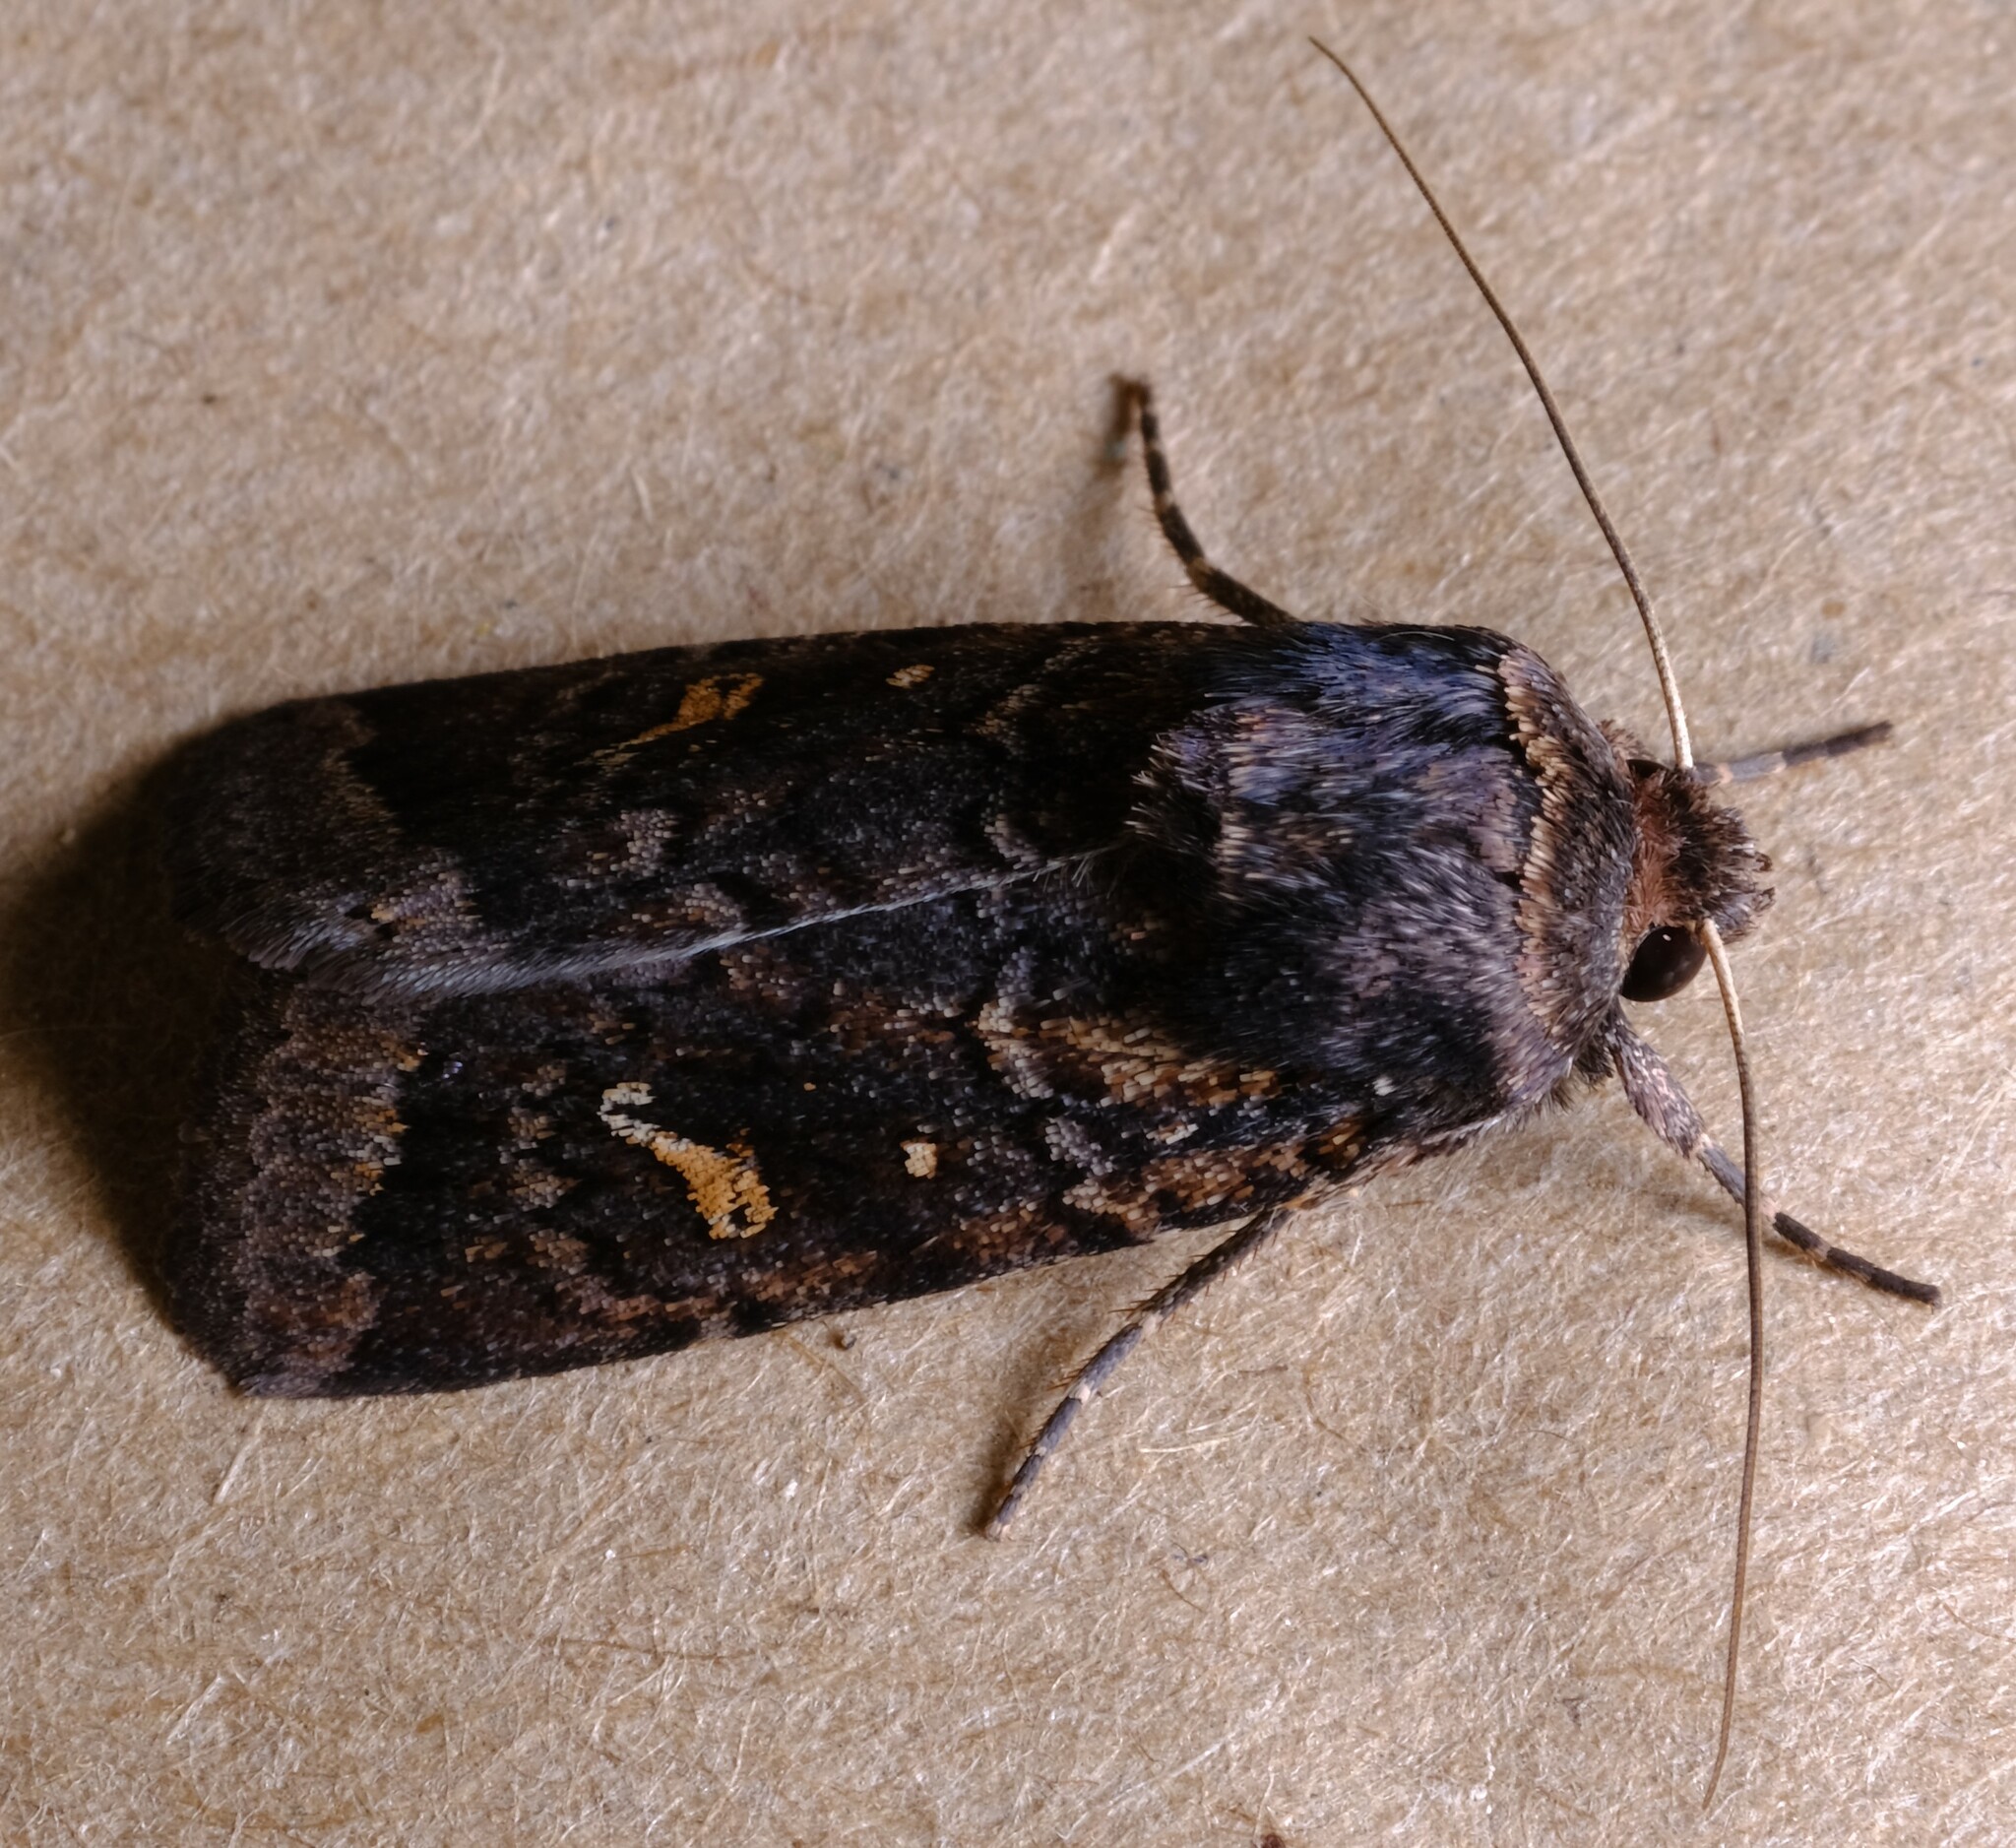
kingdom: Animalia
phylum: Arthropoda
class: Insecta
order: Lepidoptera
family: Noctuidae
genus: Proteuxoa
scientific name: Proteuxoa bistrigula
